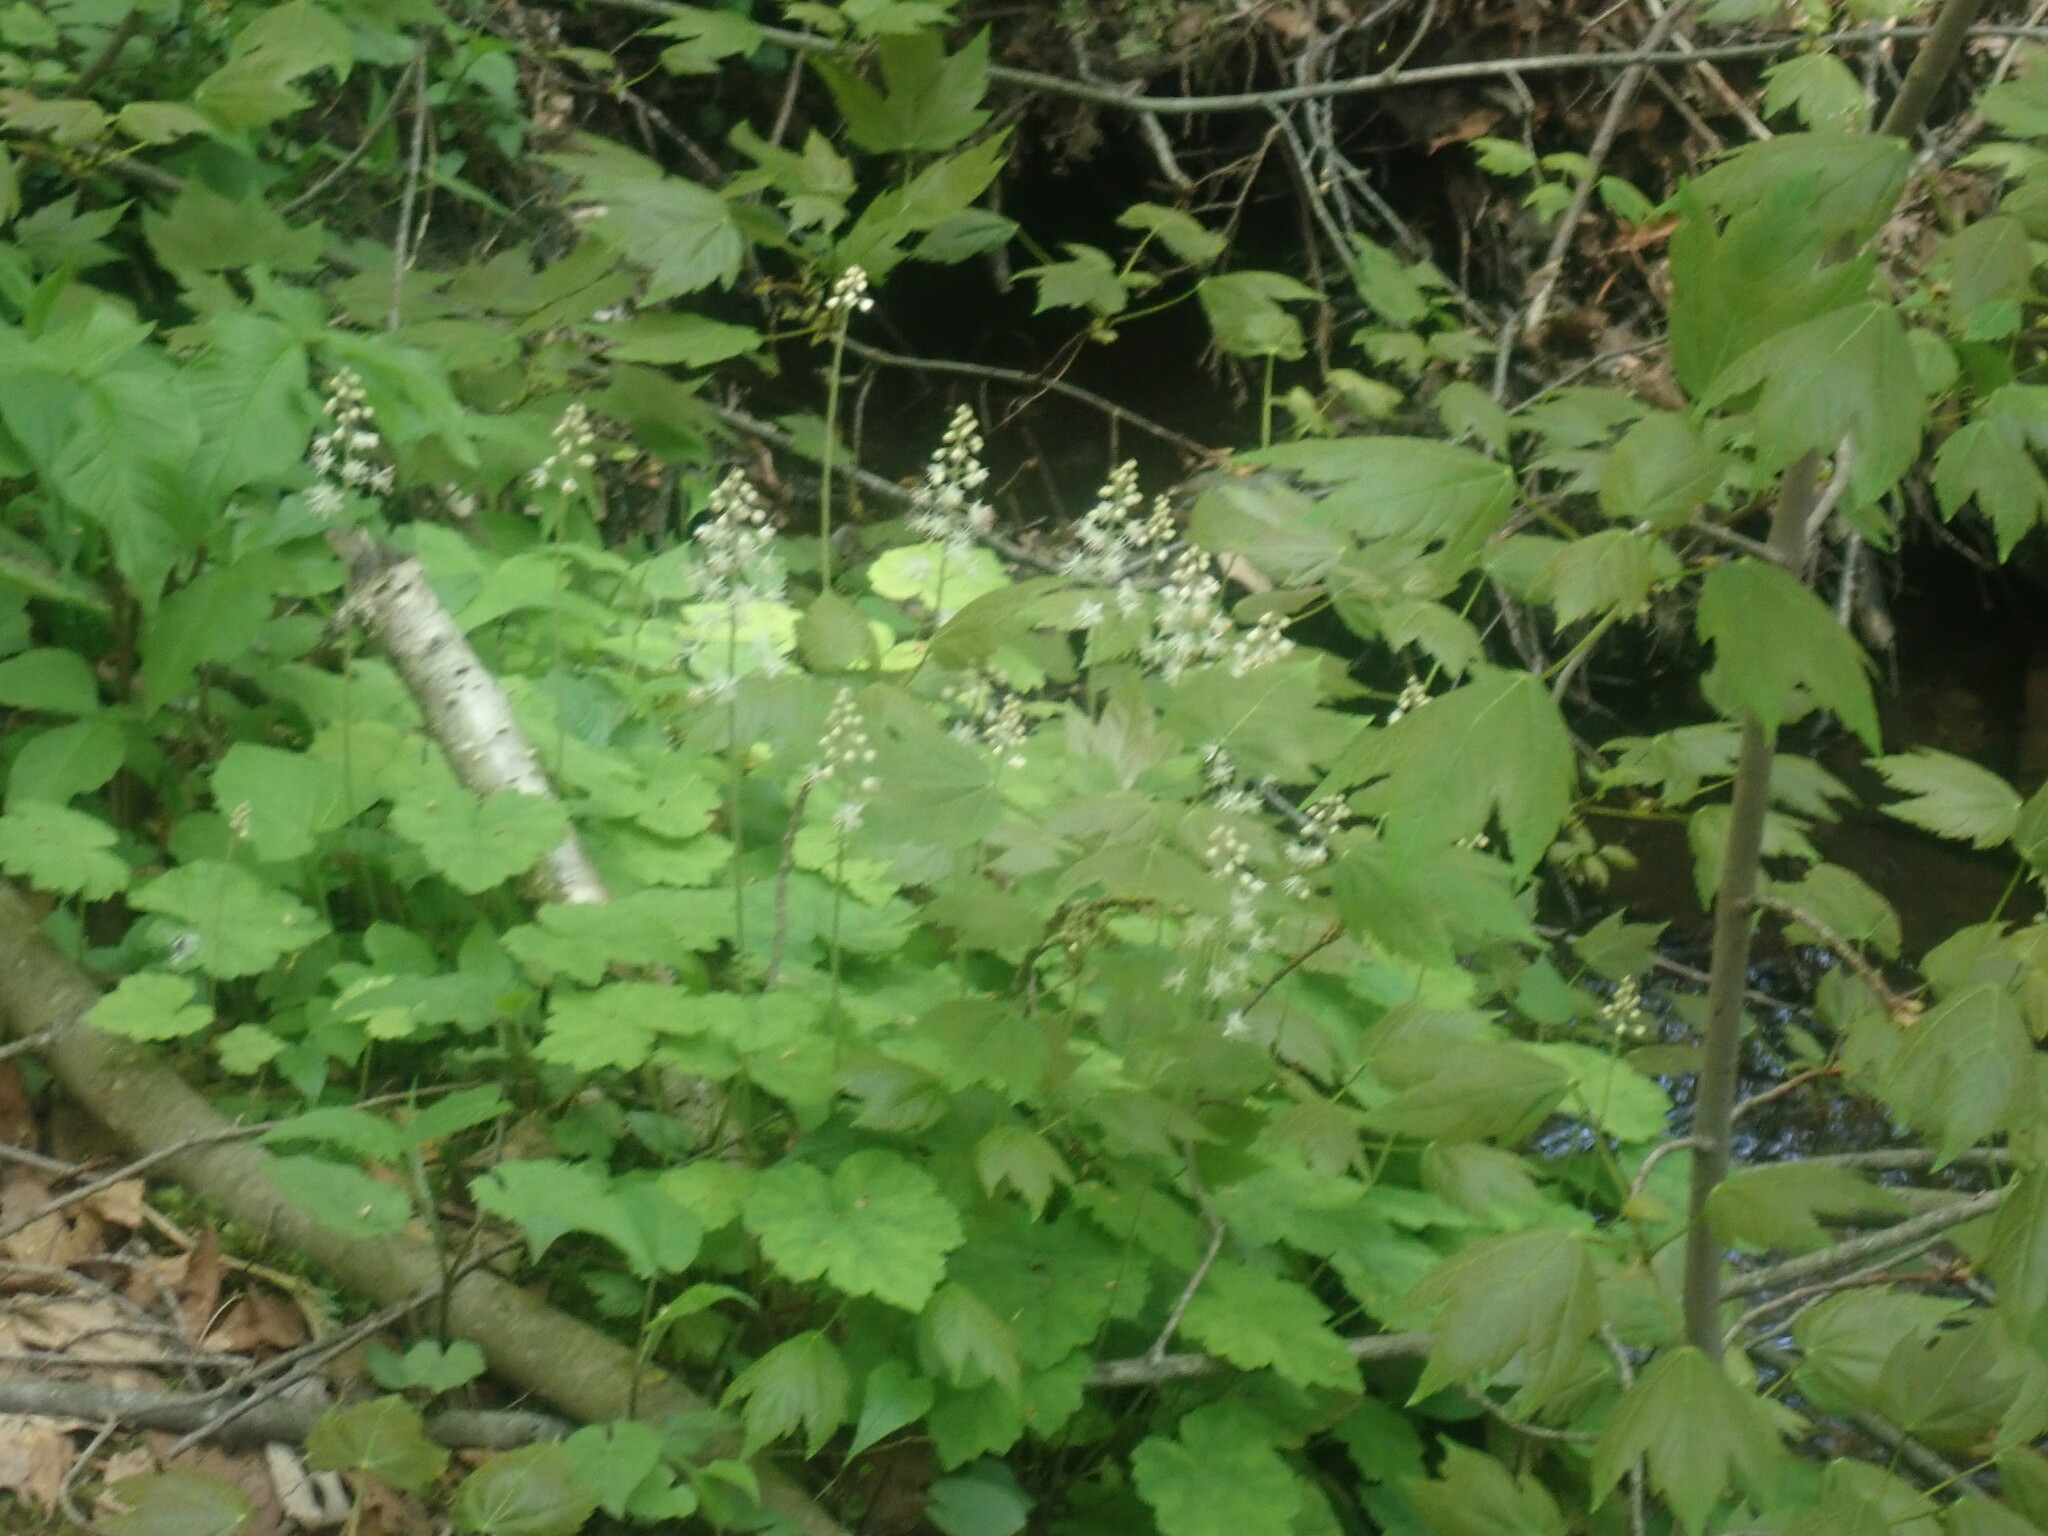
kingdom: Plantae
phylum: Tracheophyta
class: Magnoliopsida
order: Saxifragales
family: Saxifragaceae
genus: Tiarella
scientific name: Tiarella stolonifera
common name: Stoloniferous foamflower
